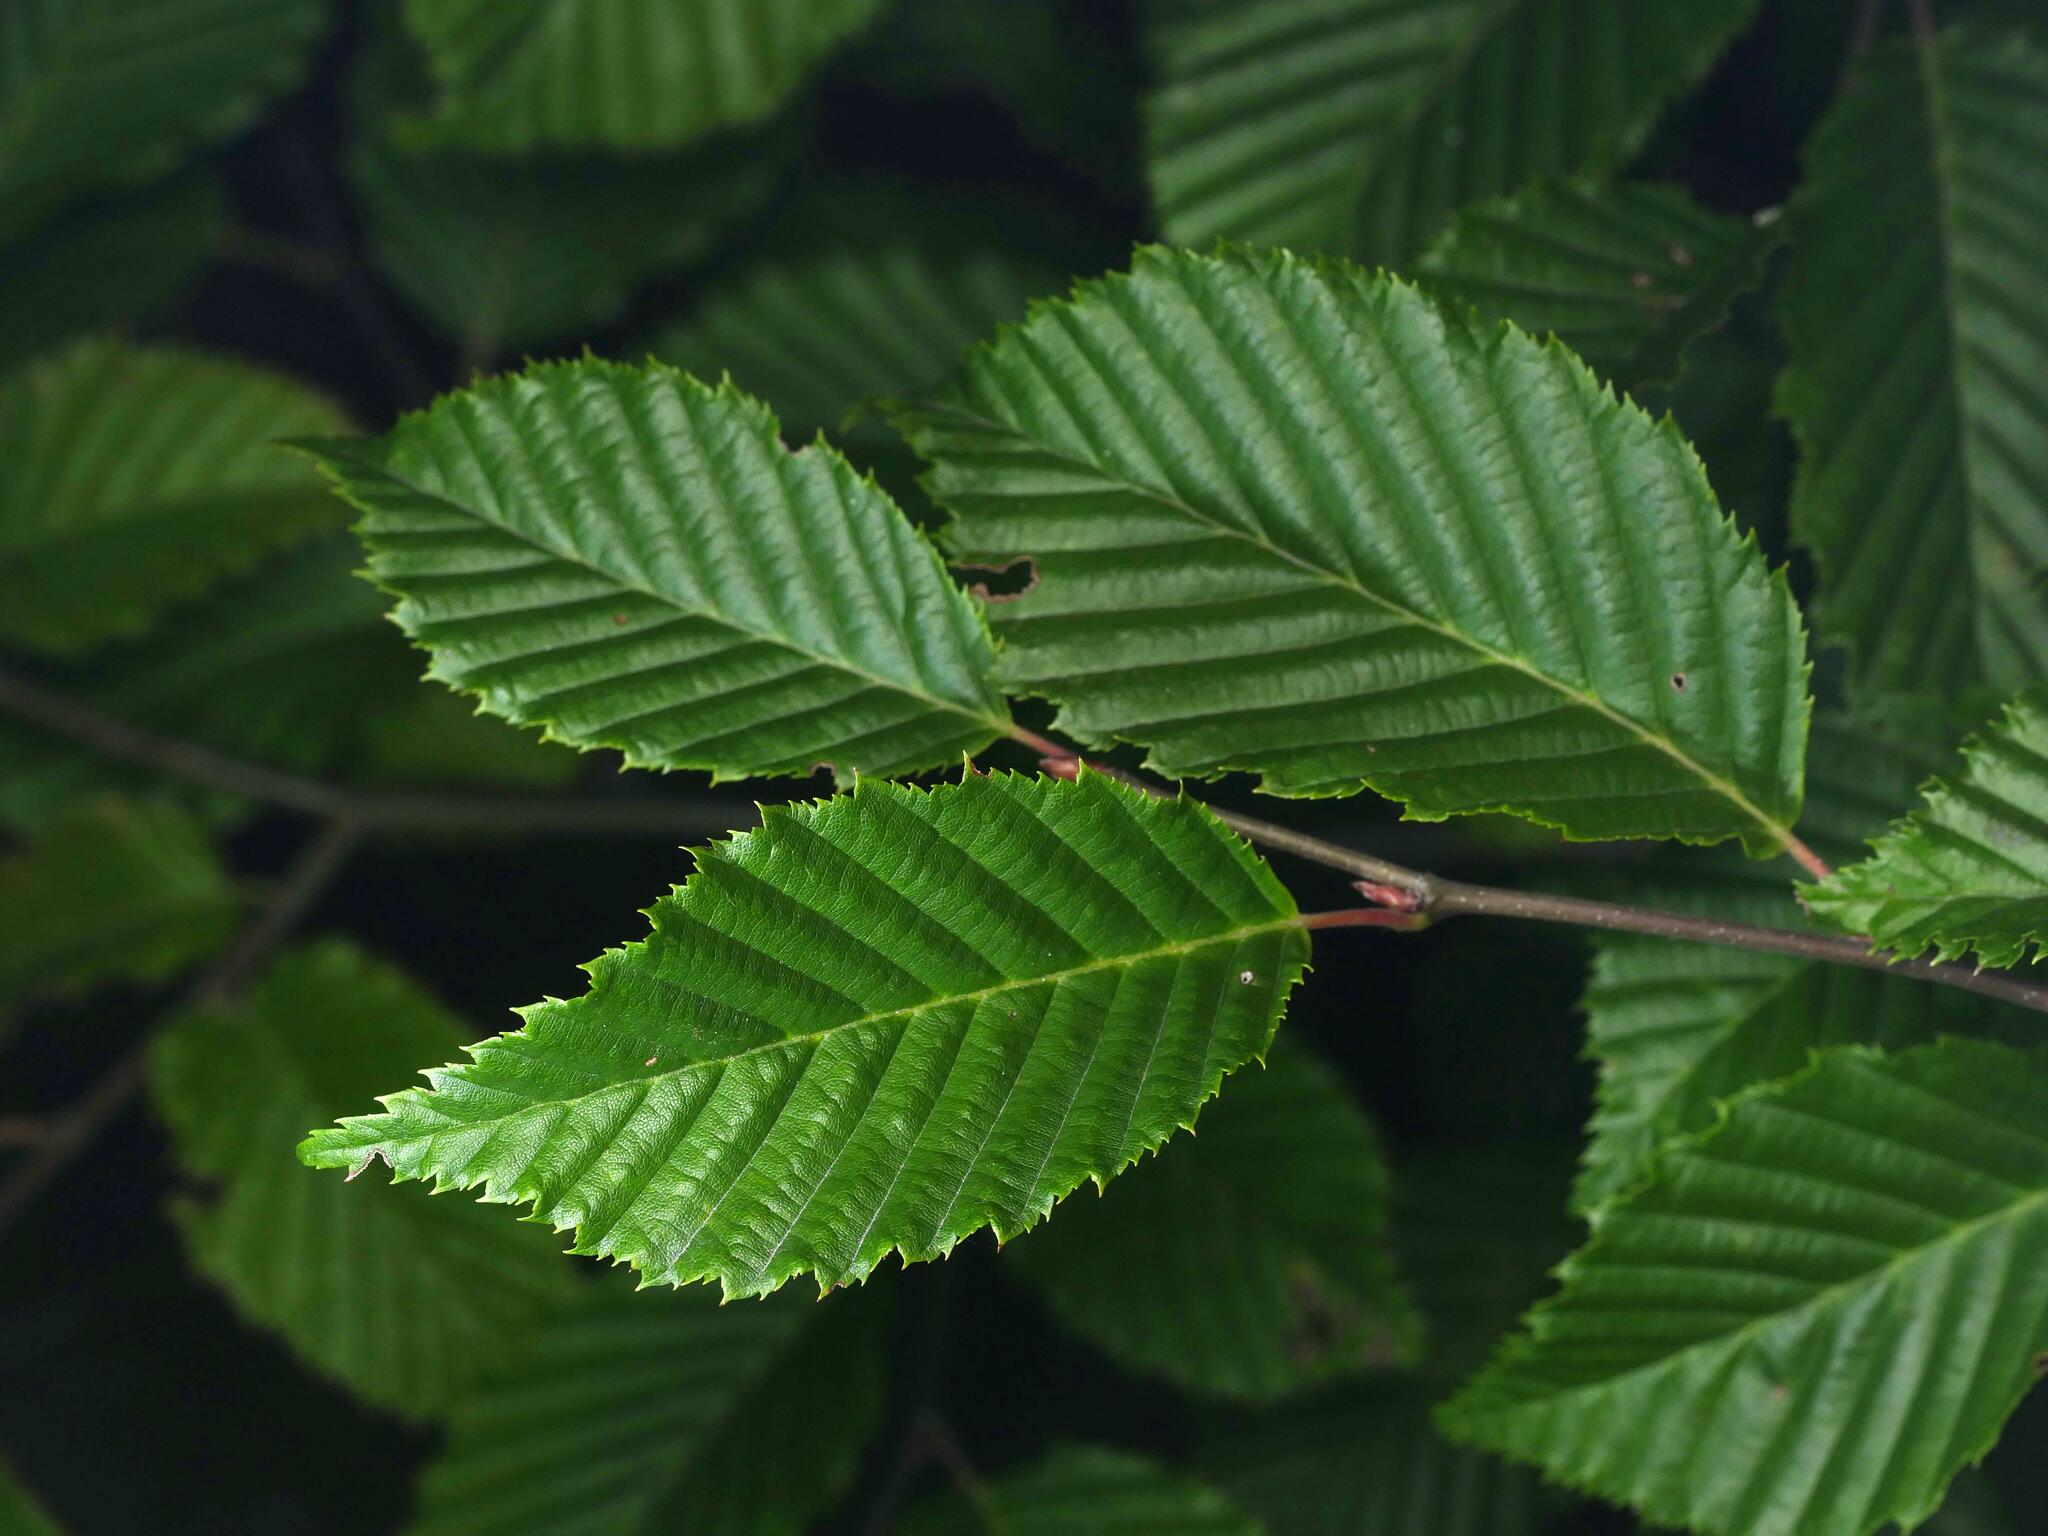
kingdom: Plantae
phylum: Tracheophyta
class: Magnoliopsida
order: Fagales
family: Betulaceae
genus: Carpinus
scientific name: Carpinus betulus
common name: Hornbeam
